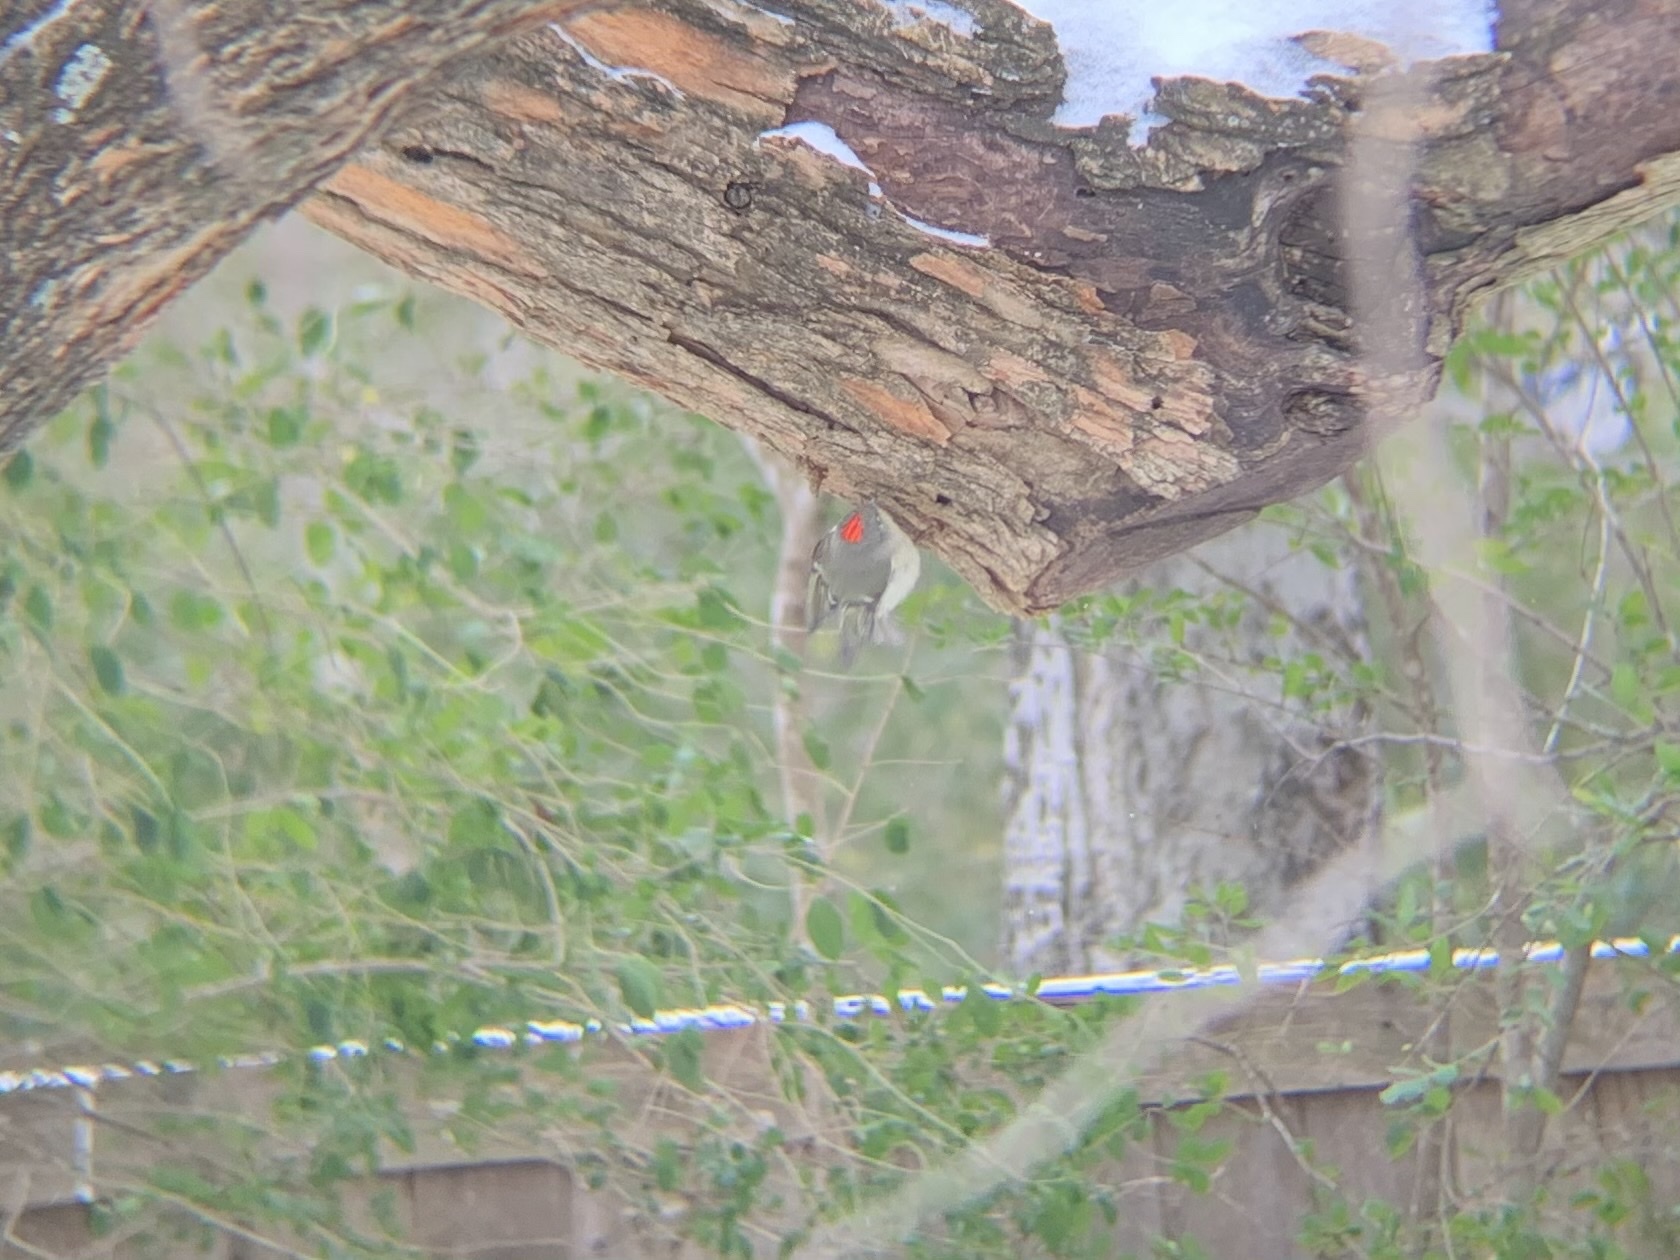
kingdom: Animalia
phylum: Chordata
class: Aves
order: Passeriformes
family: Regulidae
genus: Regulus
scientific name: Regulus calendula
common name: Ruby-crowned kinglet
